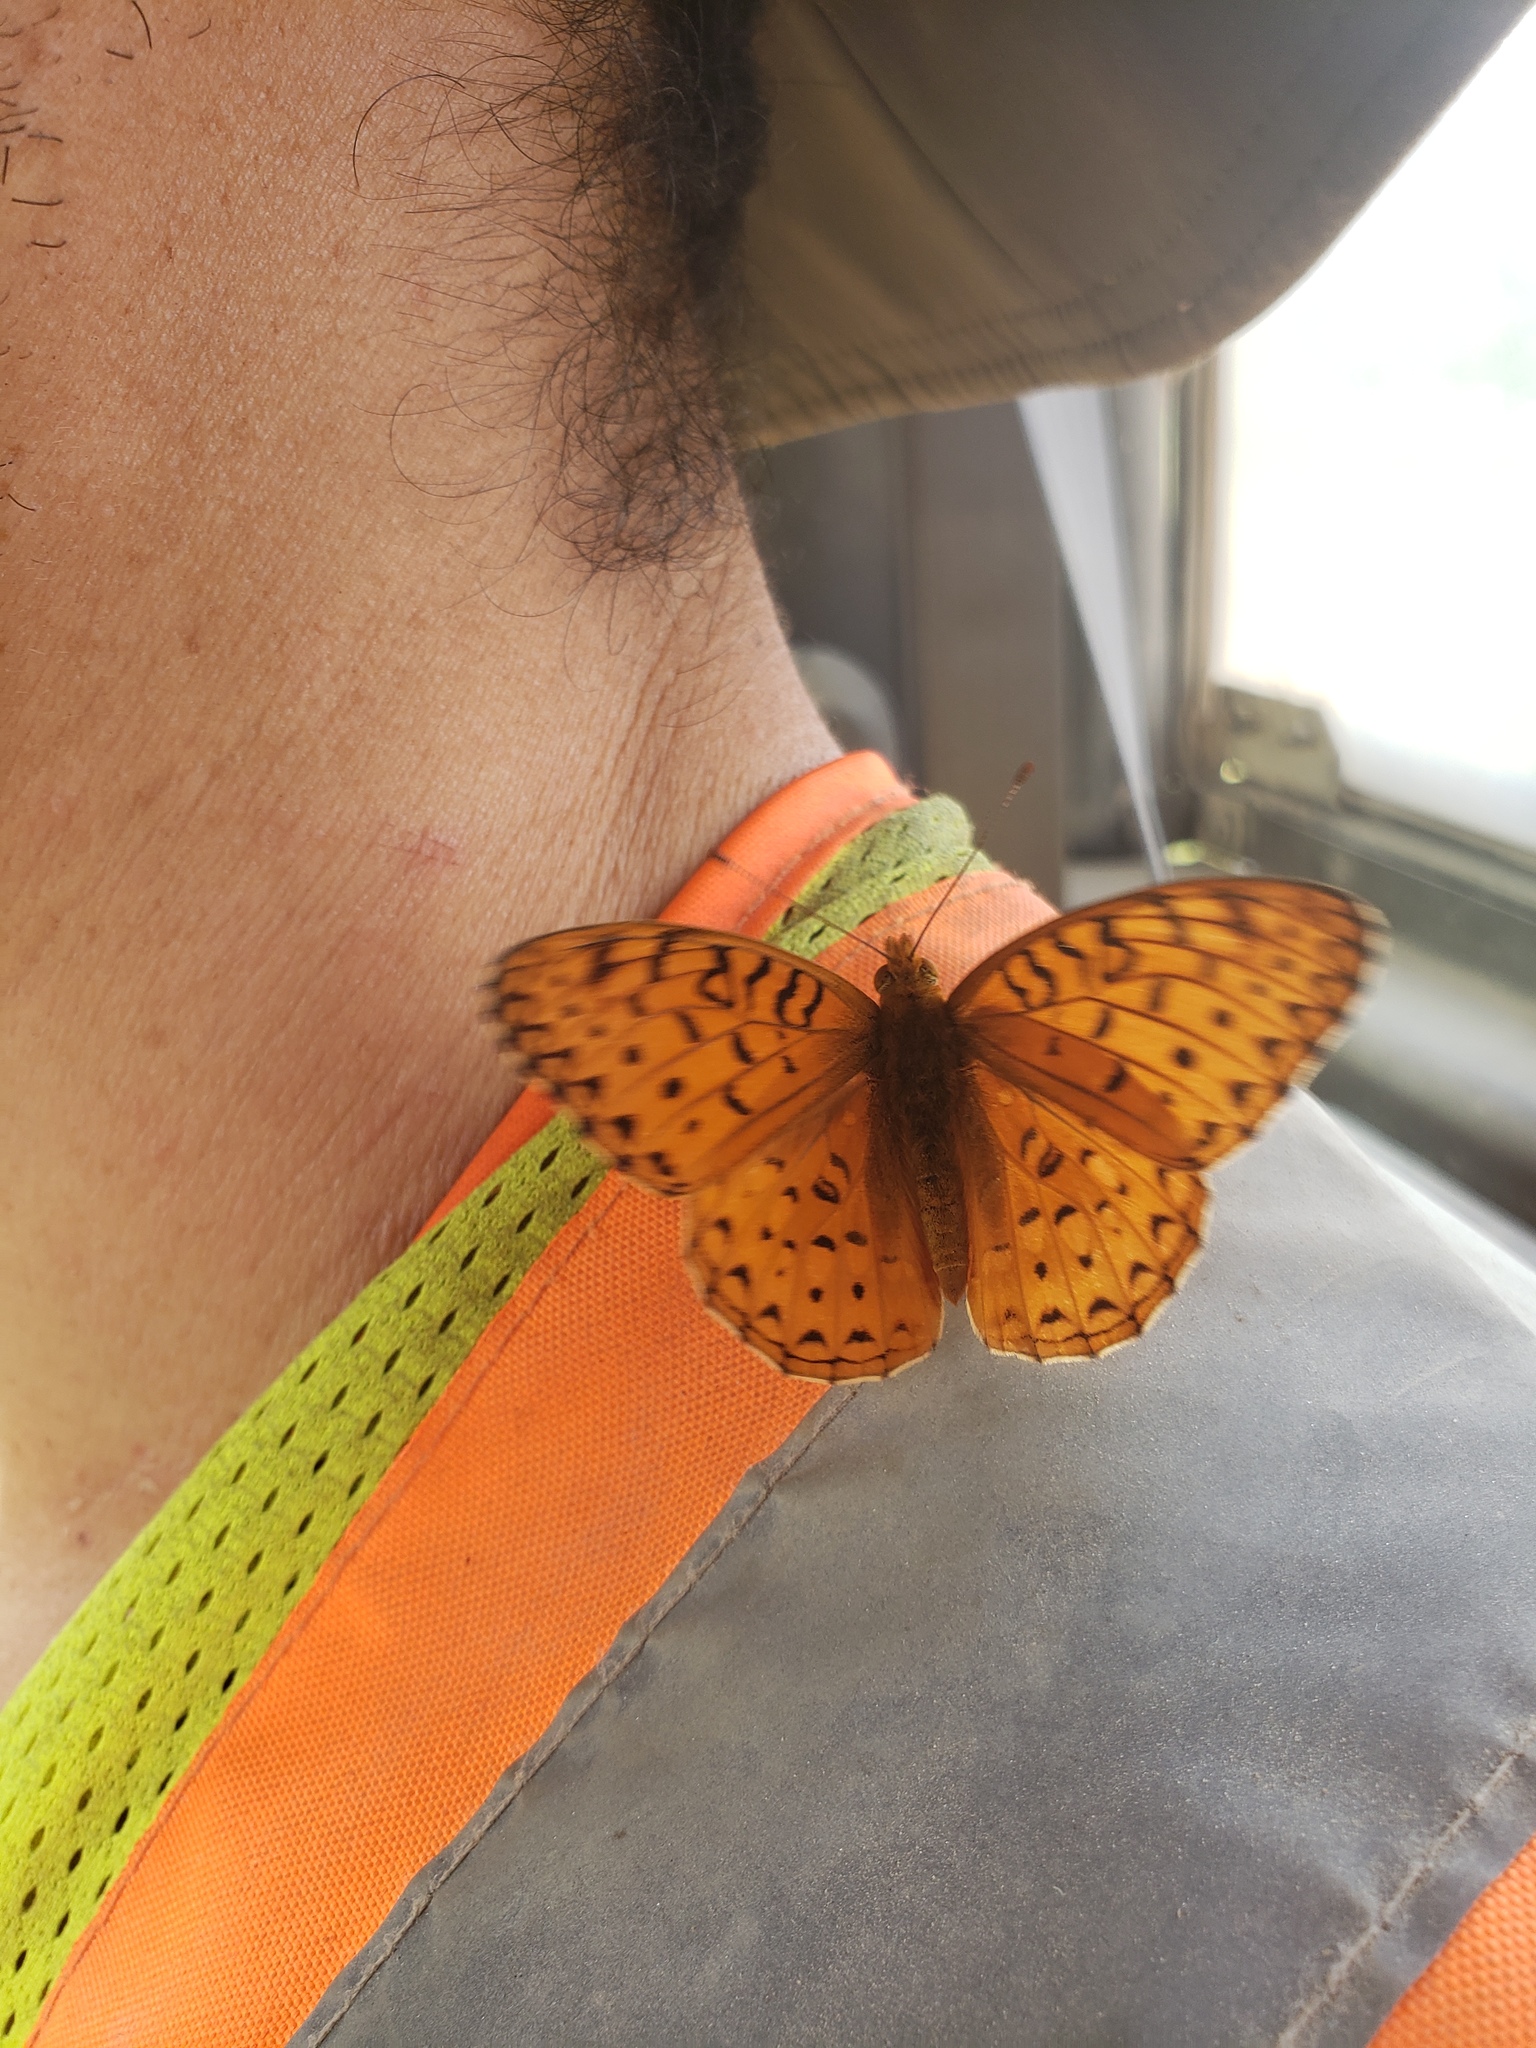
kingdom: Animalia
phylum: Arthropoda
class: Insecta
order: Lepidoptera
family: Nymphalidae
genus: Speyeria
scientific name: Speyeria aphrodite
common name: Aphrodite friitllary
